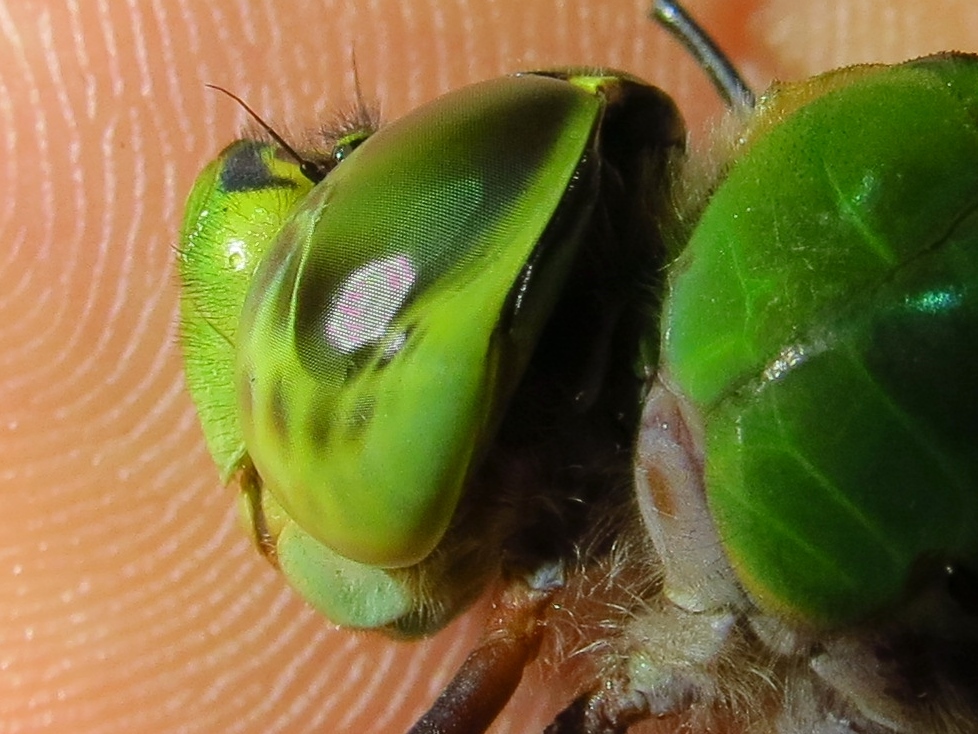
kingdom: Animalia
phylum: Arthropoda
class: Insecta
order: Odonata
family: Aeshnidae
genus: Anax
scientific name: Anax junius
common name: Common green darner
